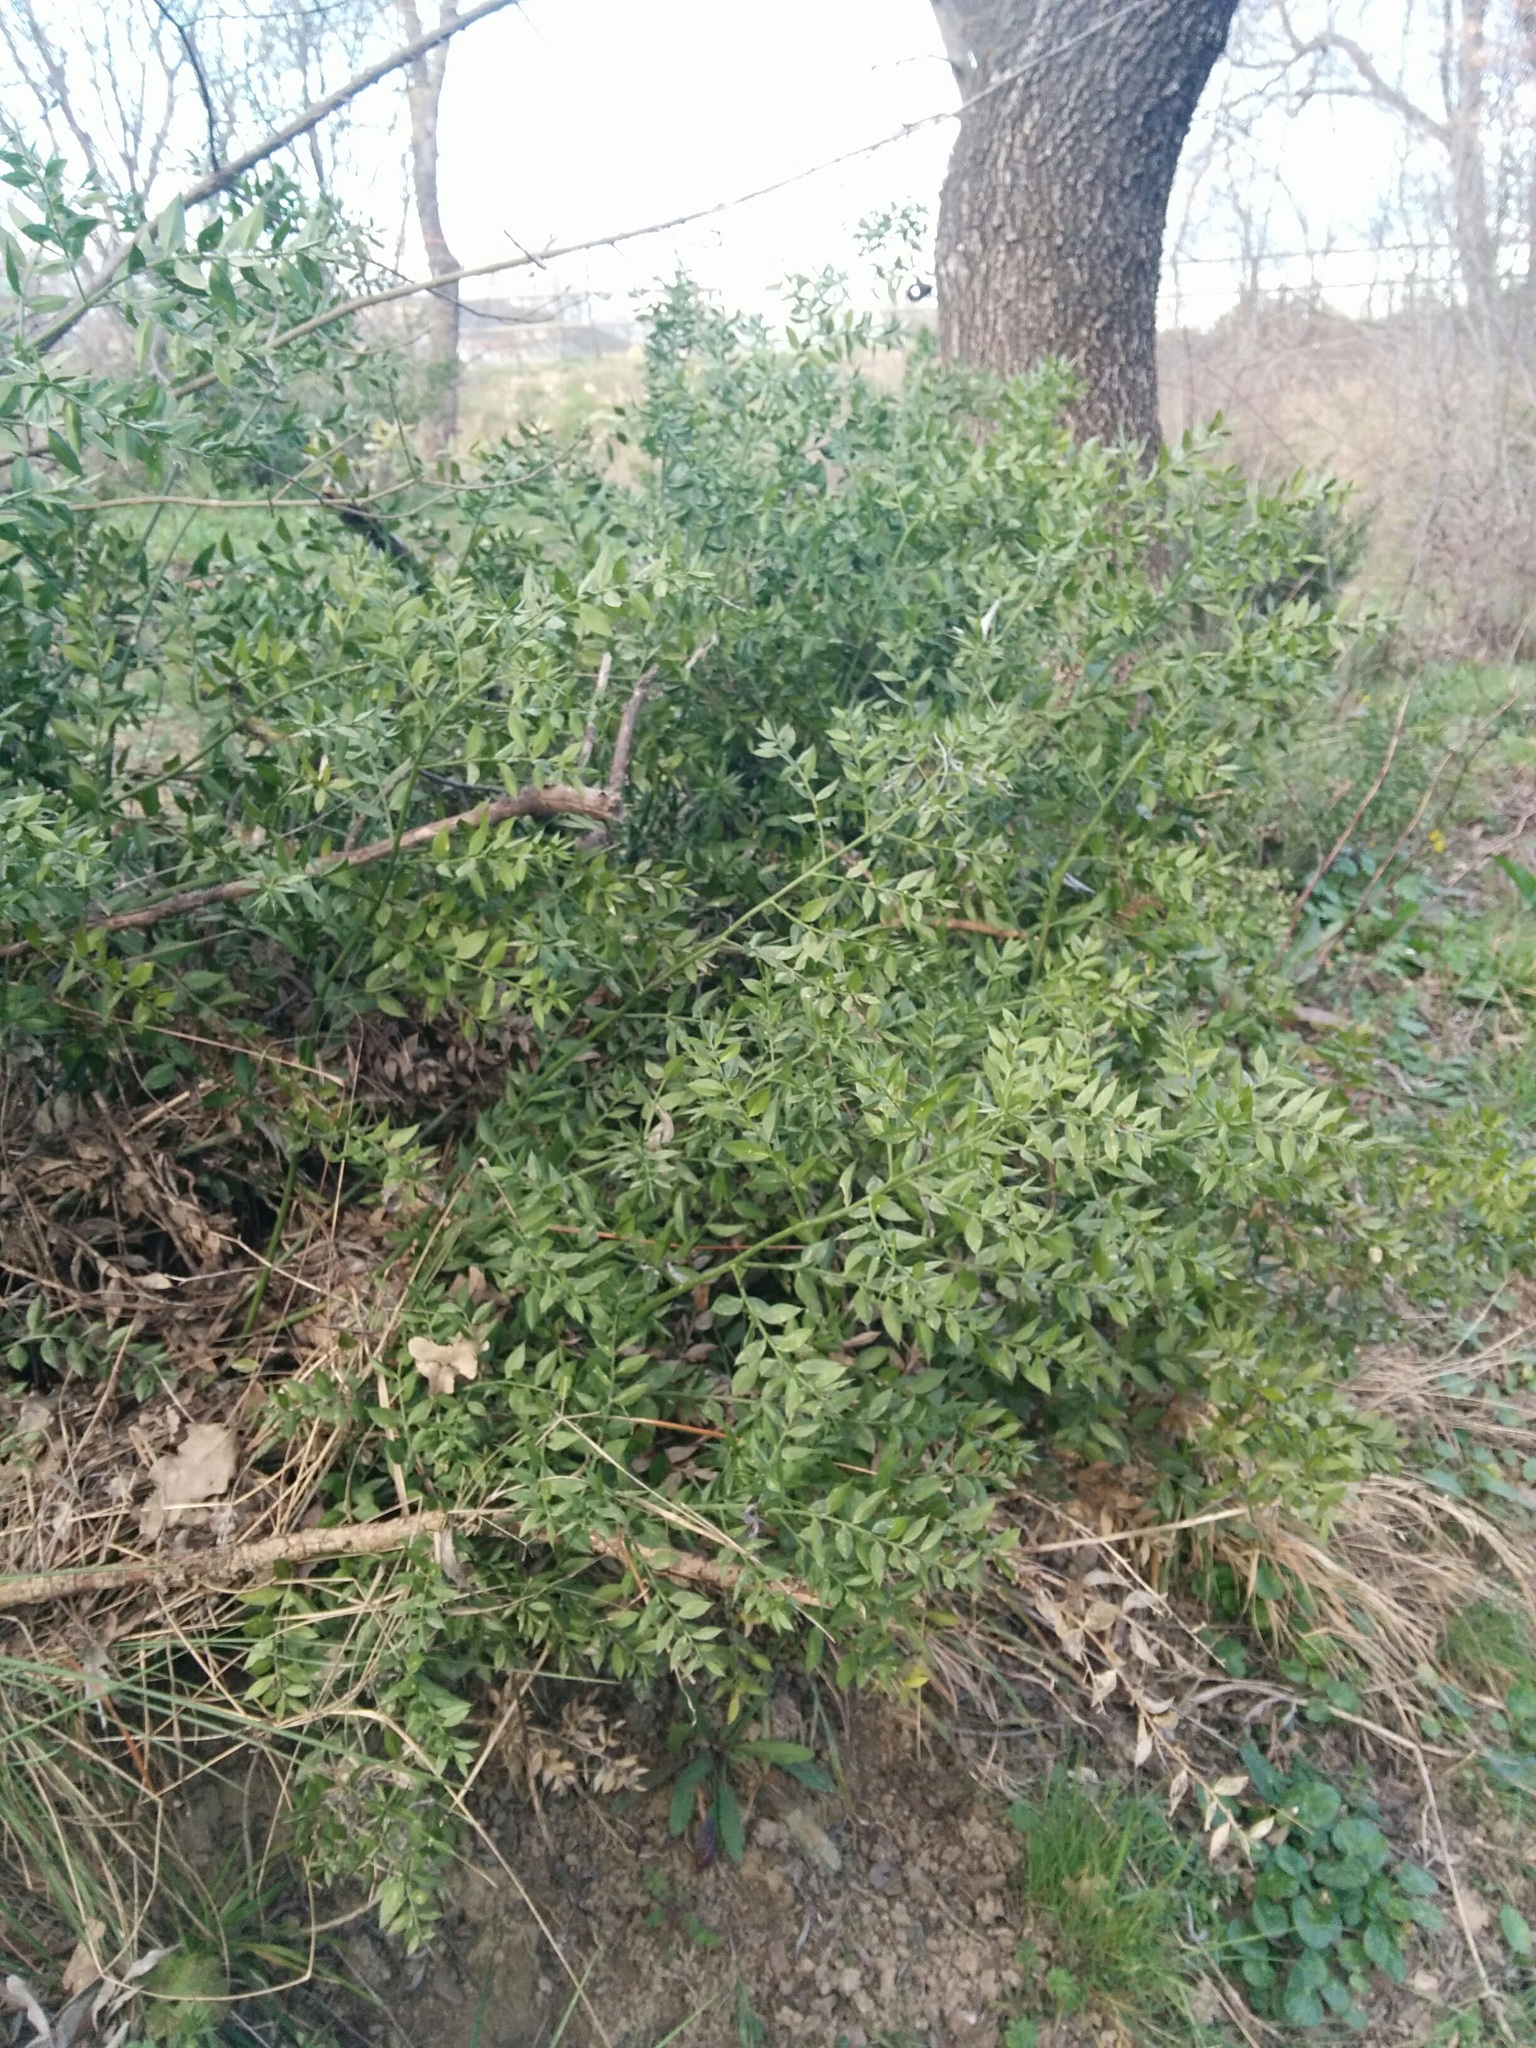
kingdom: Plantae
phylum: Tracheophyta
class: Liliopsida
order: Asparagales
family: Asparagaceae
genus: Ruscus
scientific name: Ruscus aculeatus
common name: Butcher's-broom
